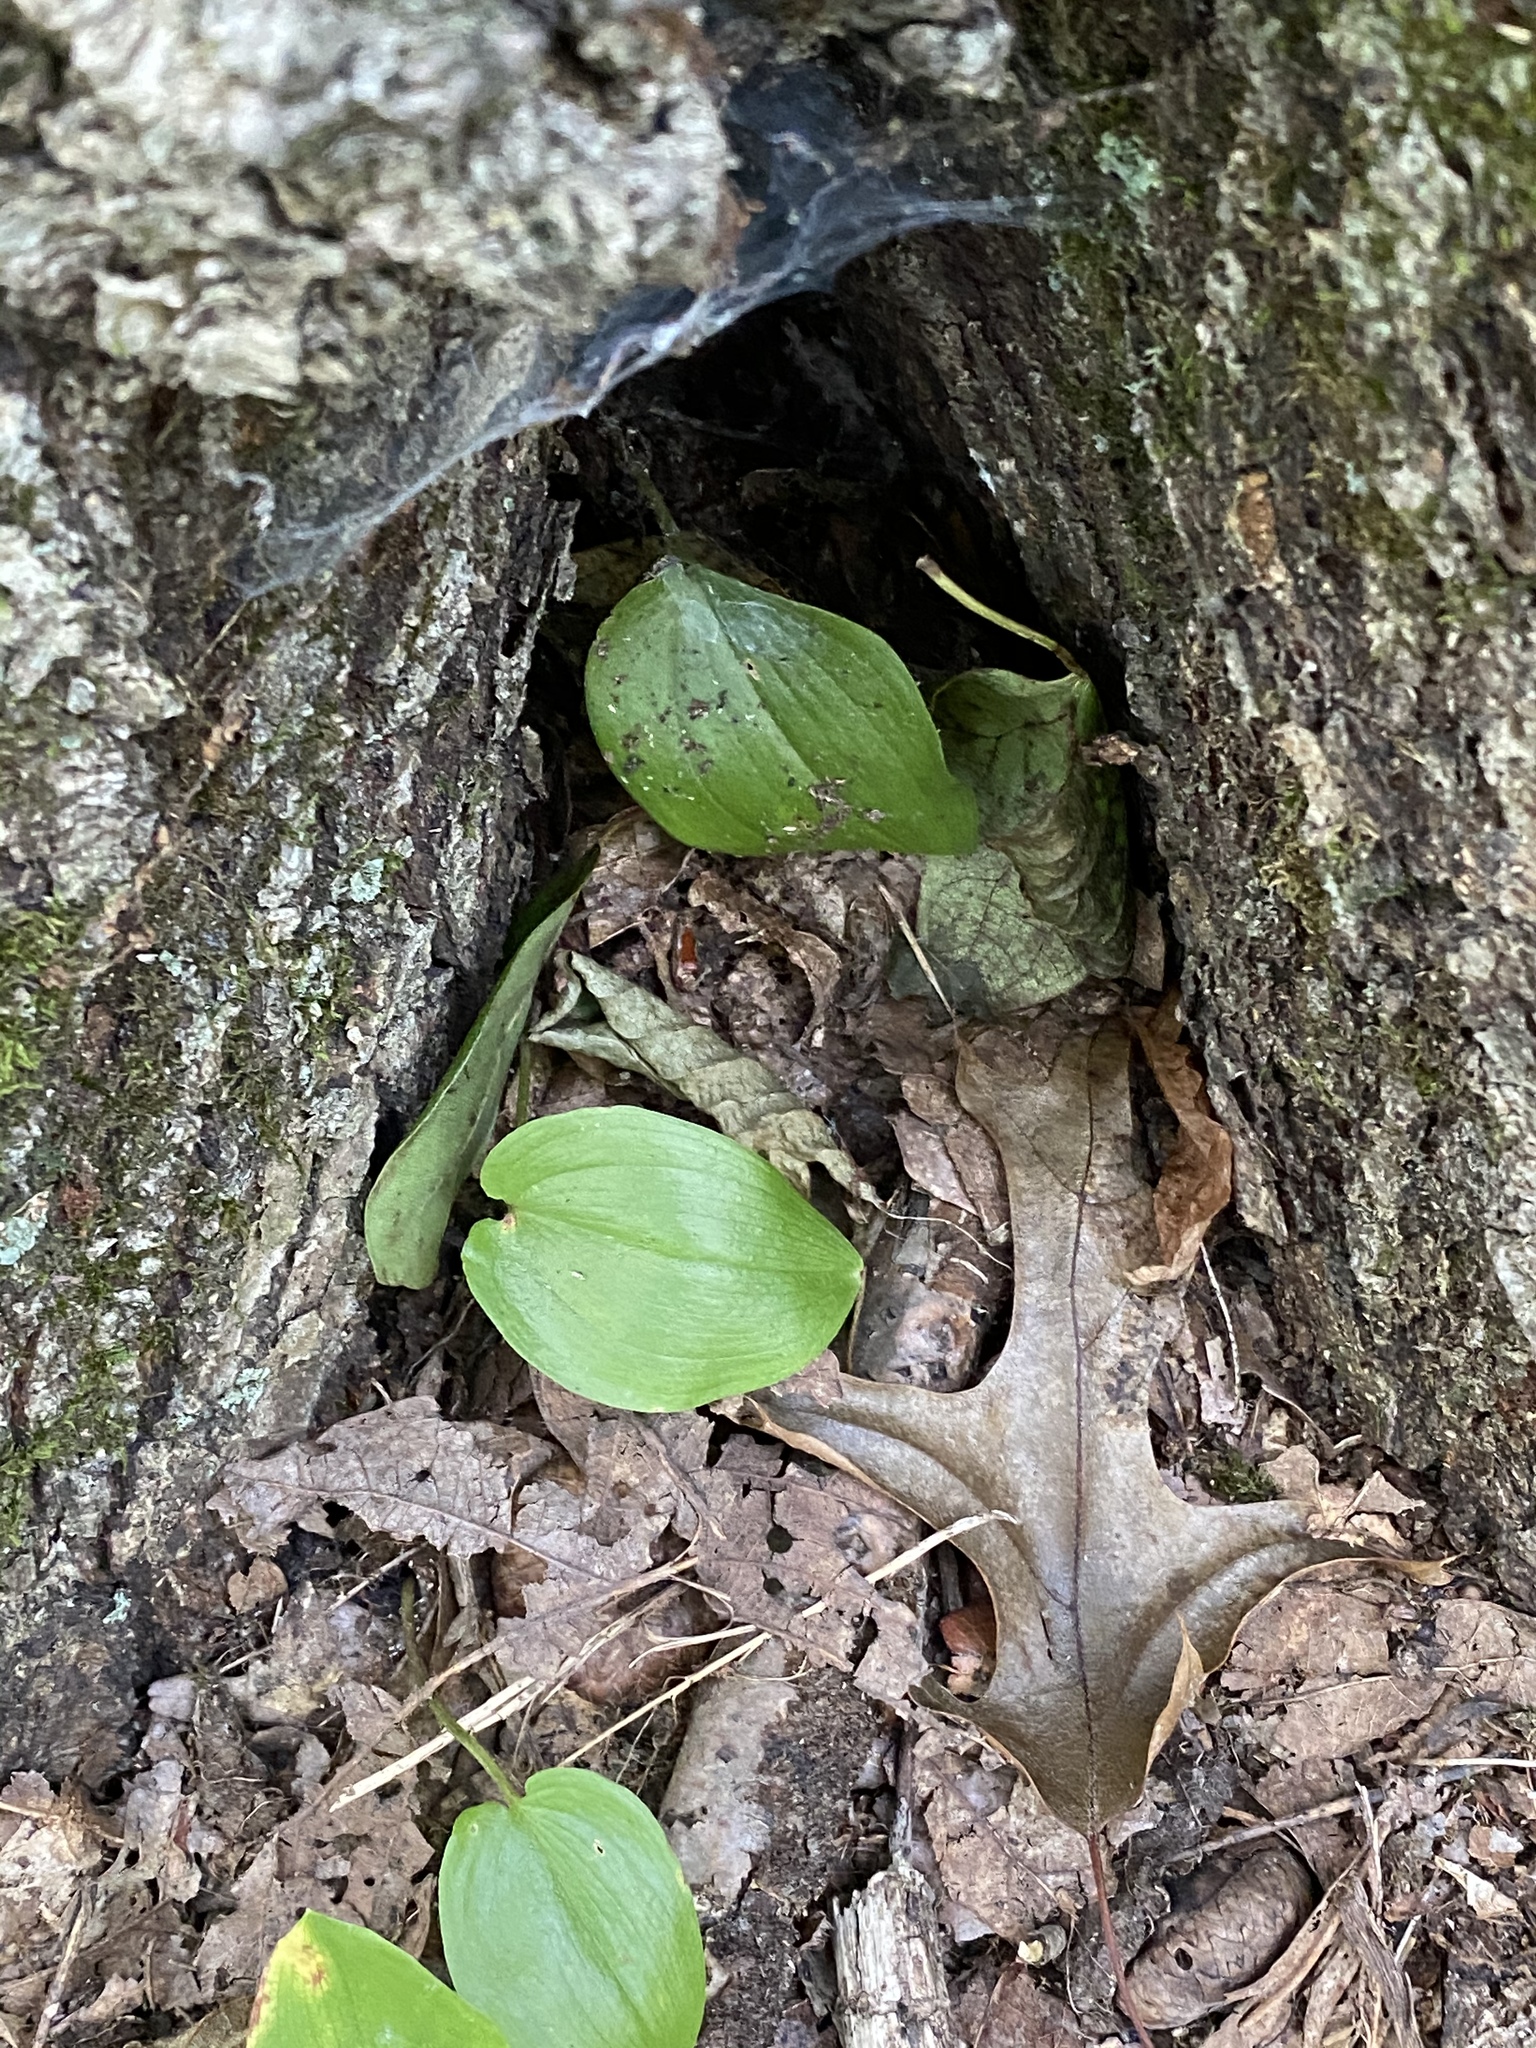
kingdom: Plantae
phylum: Tracheophyta
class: Liliopsida
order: Asparagales
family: Asparagaceae
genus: Maianthemum
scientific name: Maianthemum canadense
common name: False lily-of-the-valley
